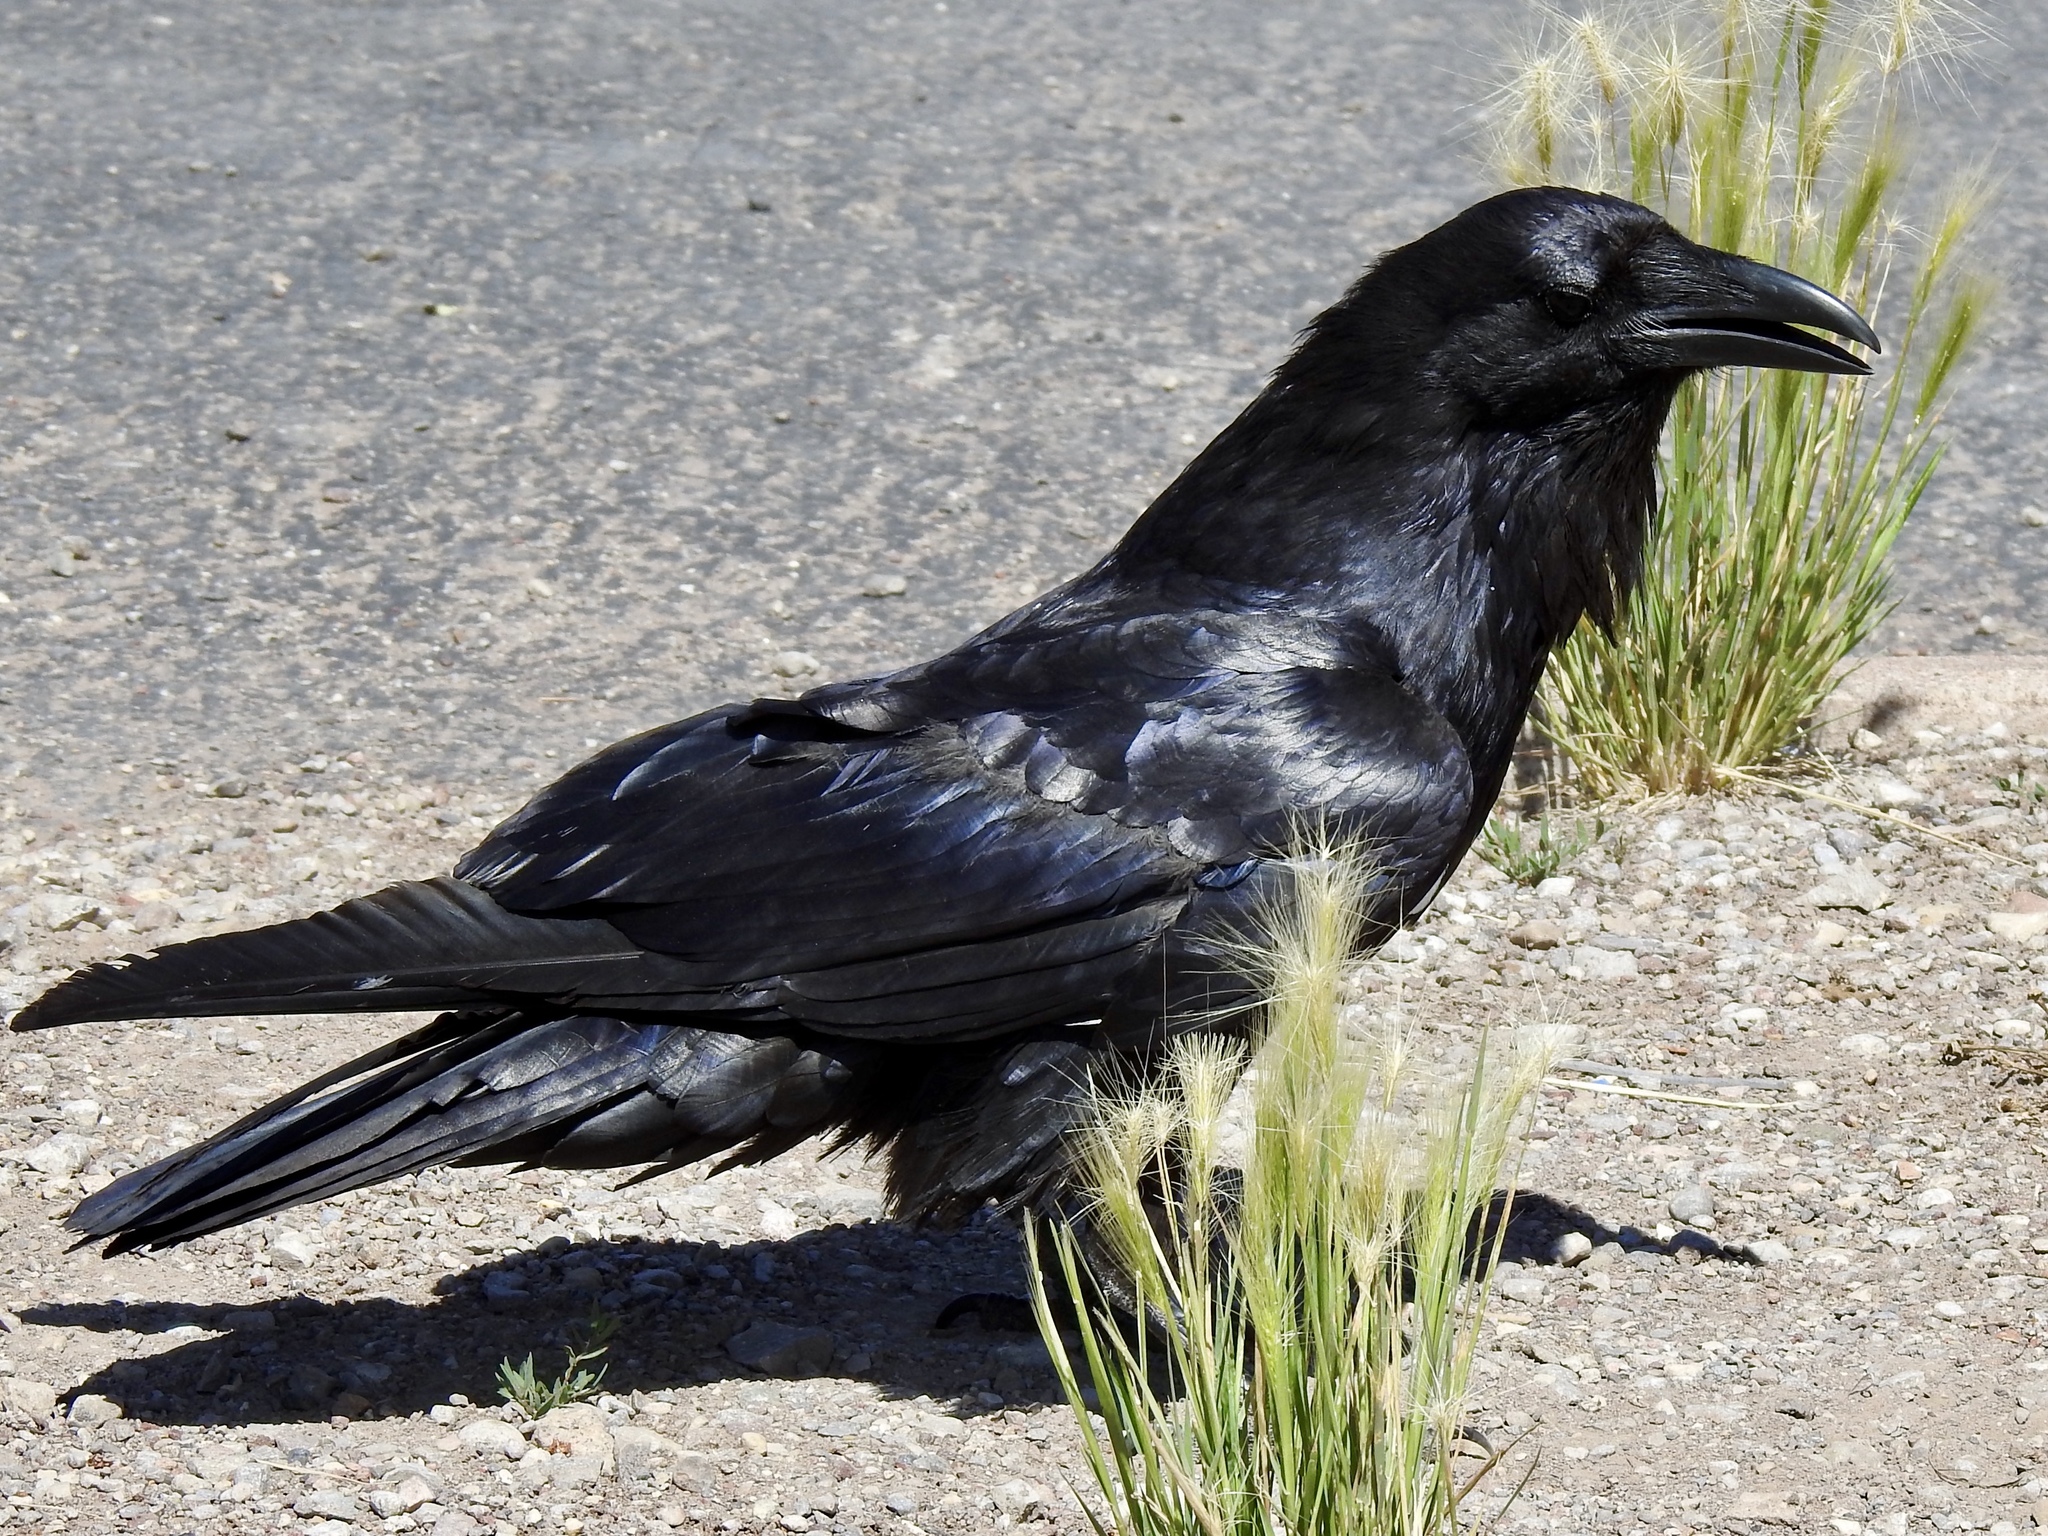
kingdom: Animalia
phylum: Chordata
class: Aves
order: Passeriformes
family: Corvidae
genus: Corvus
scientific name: Corvus corax
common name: Common raven
